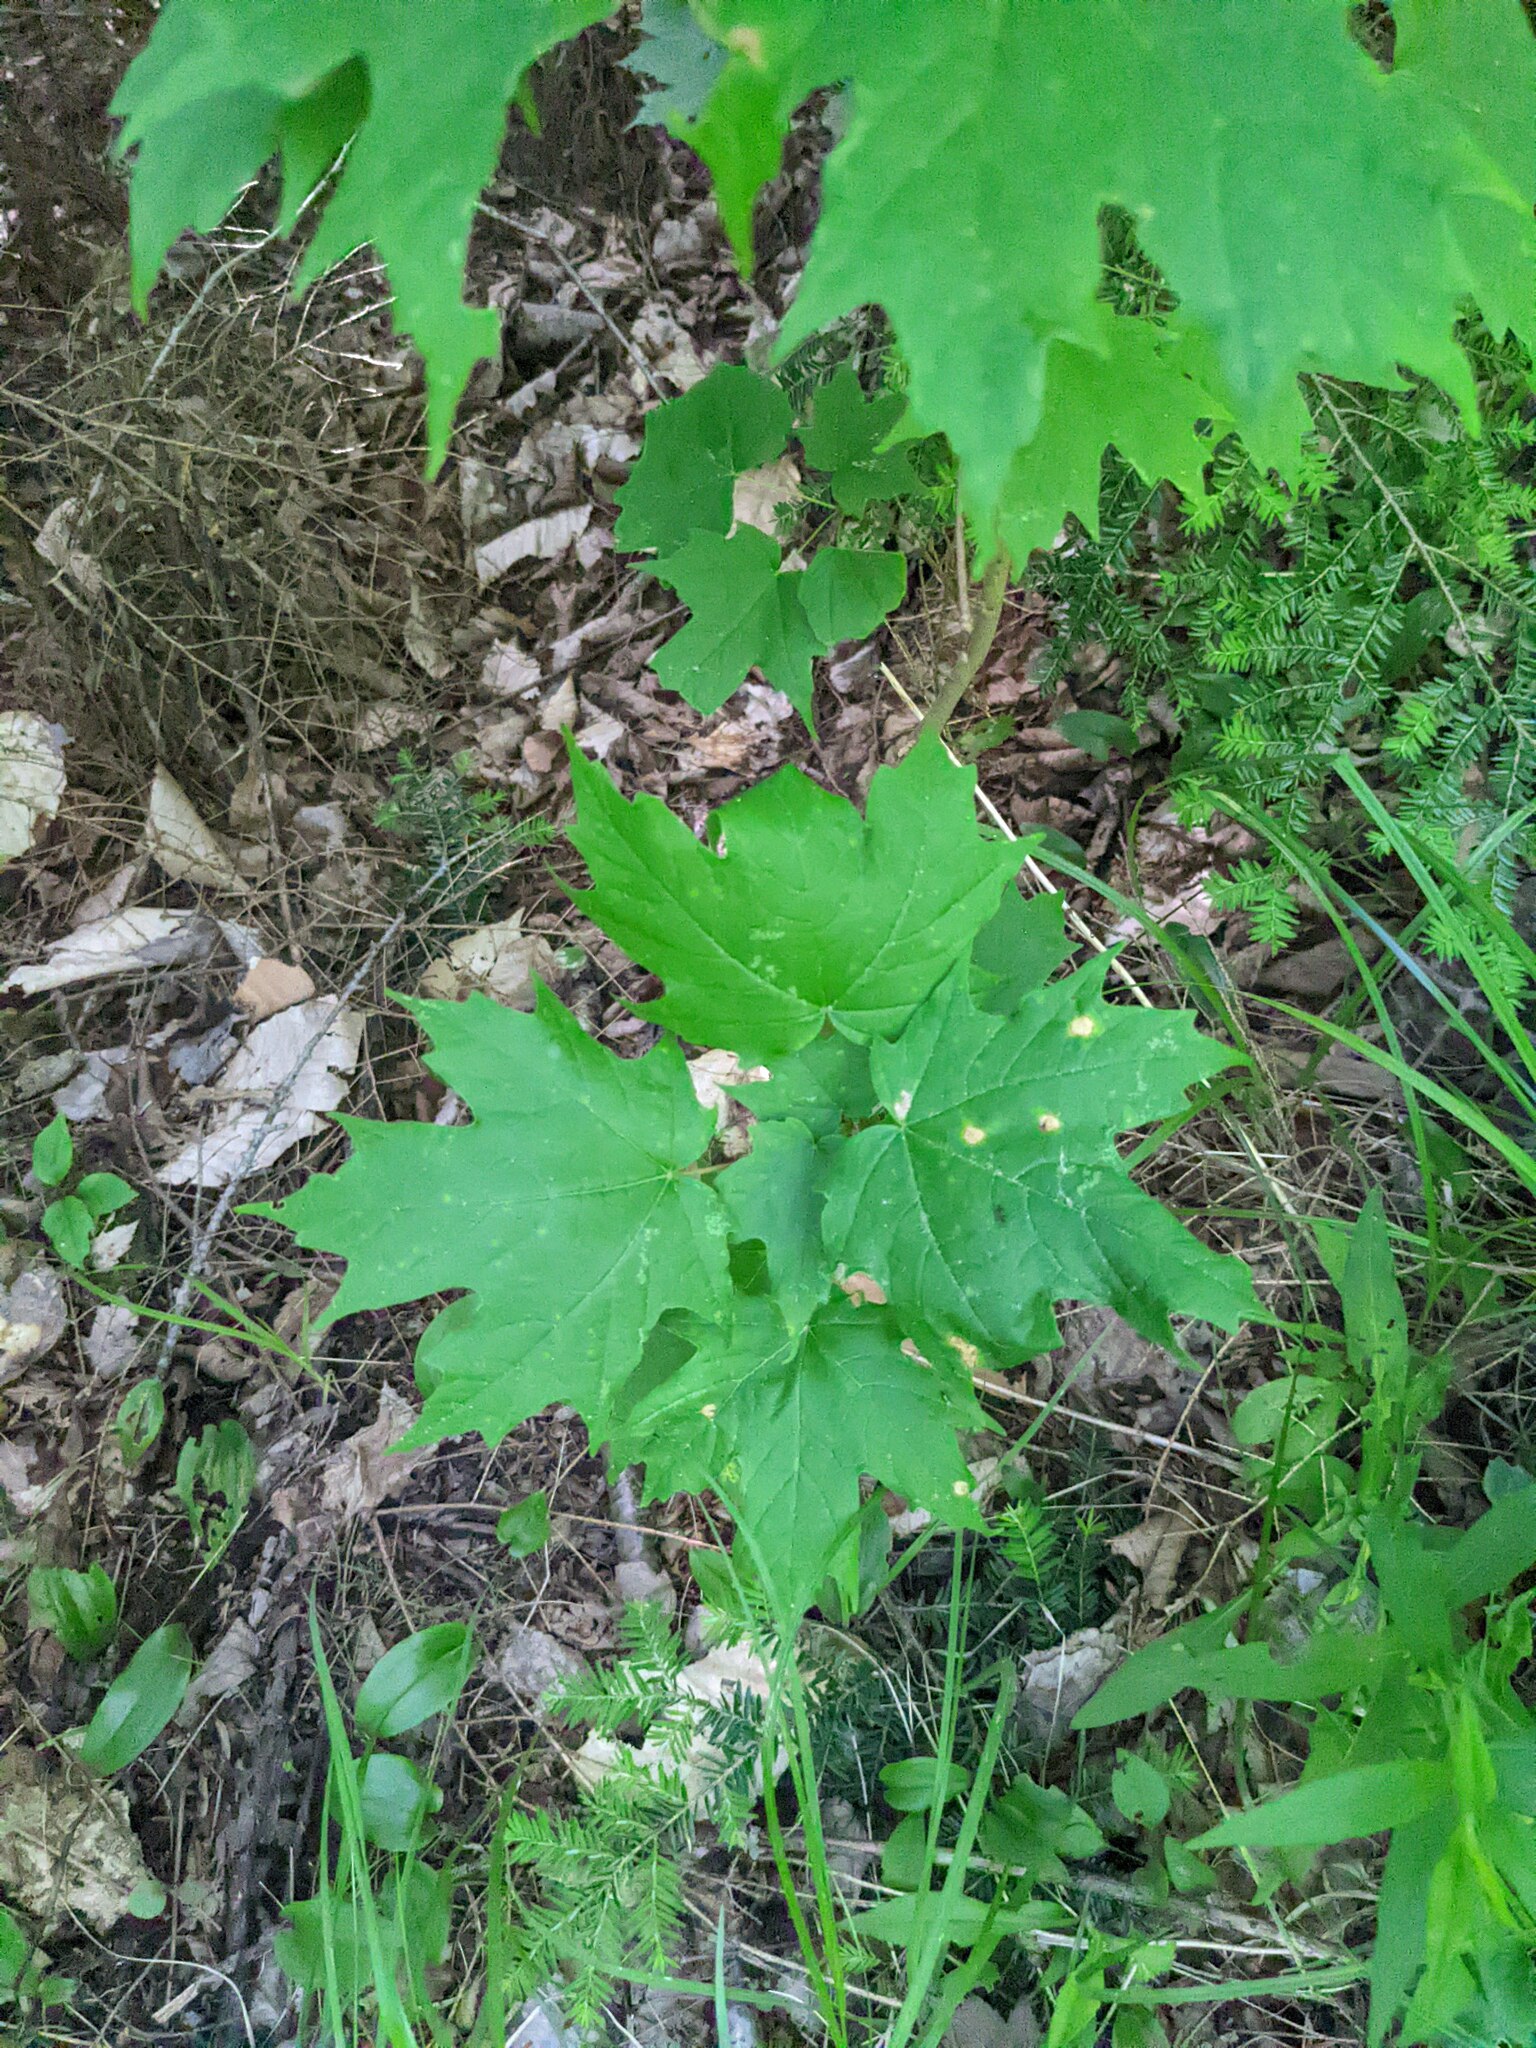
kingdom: Plantae
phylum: Tracheophyta
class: Magnoliopsida
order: Sapindales
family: Sapindaceae
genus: Acer
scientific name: Acer saccharum
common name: Sugar maple
